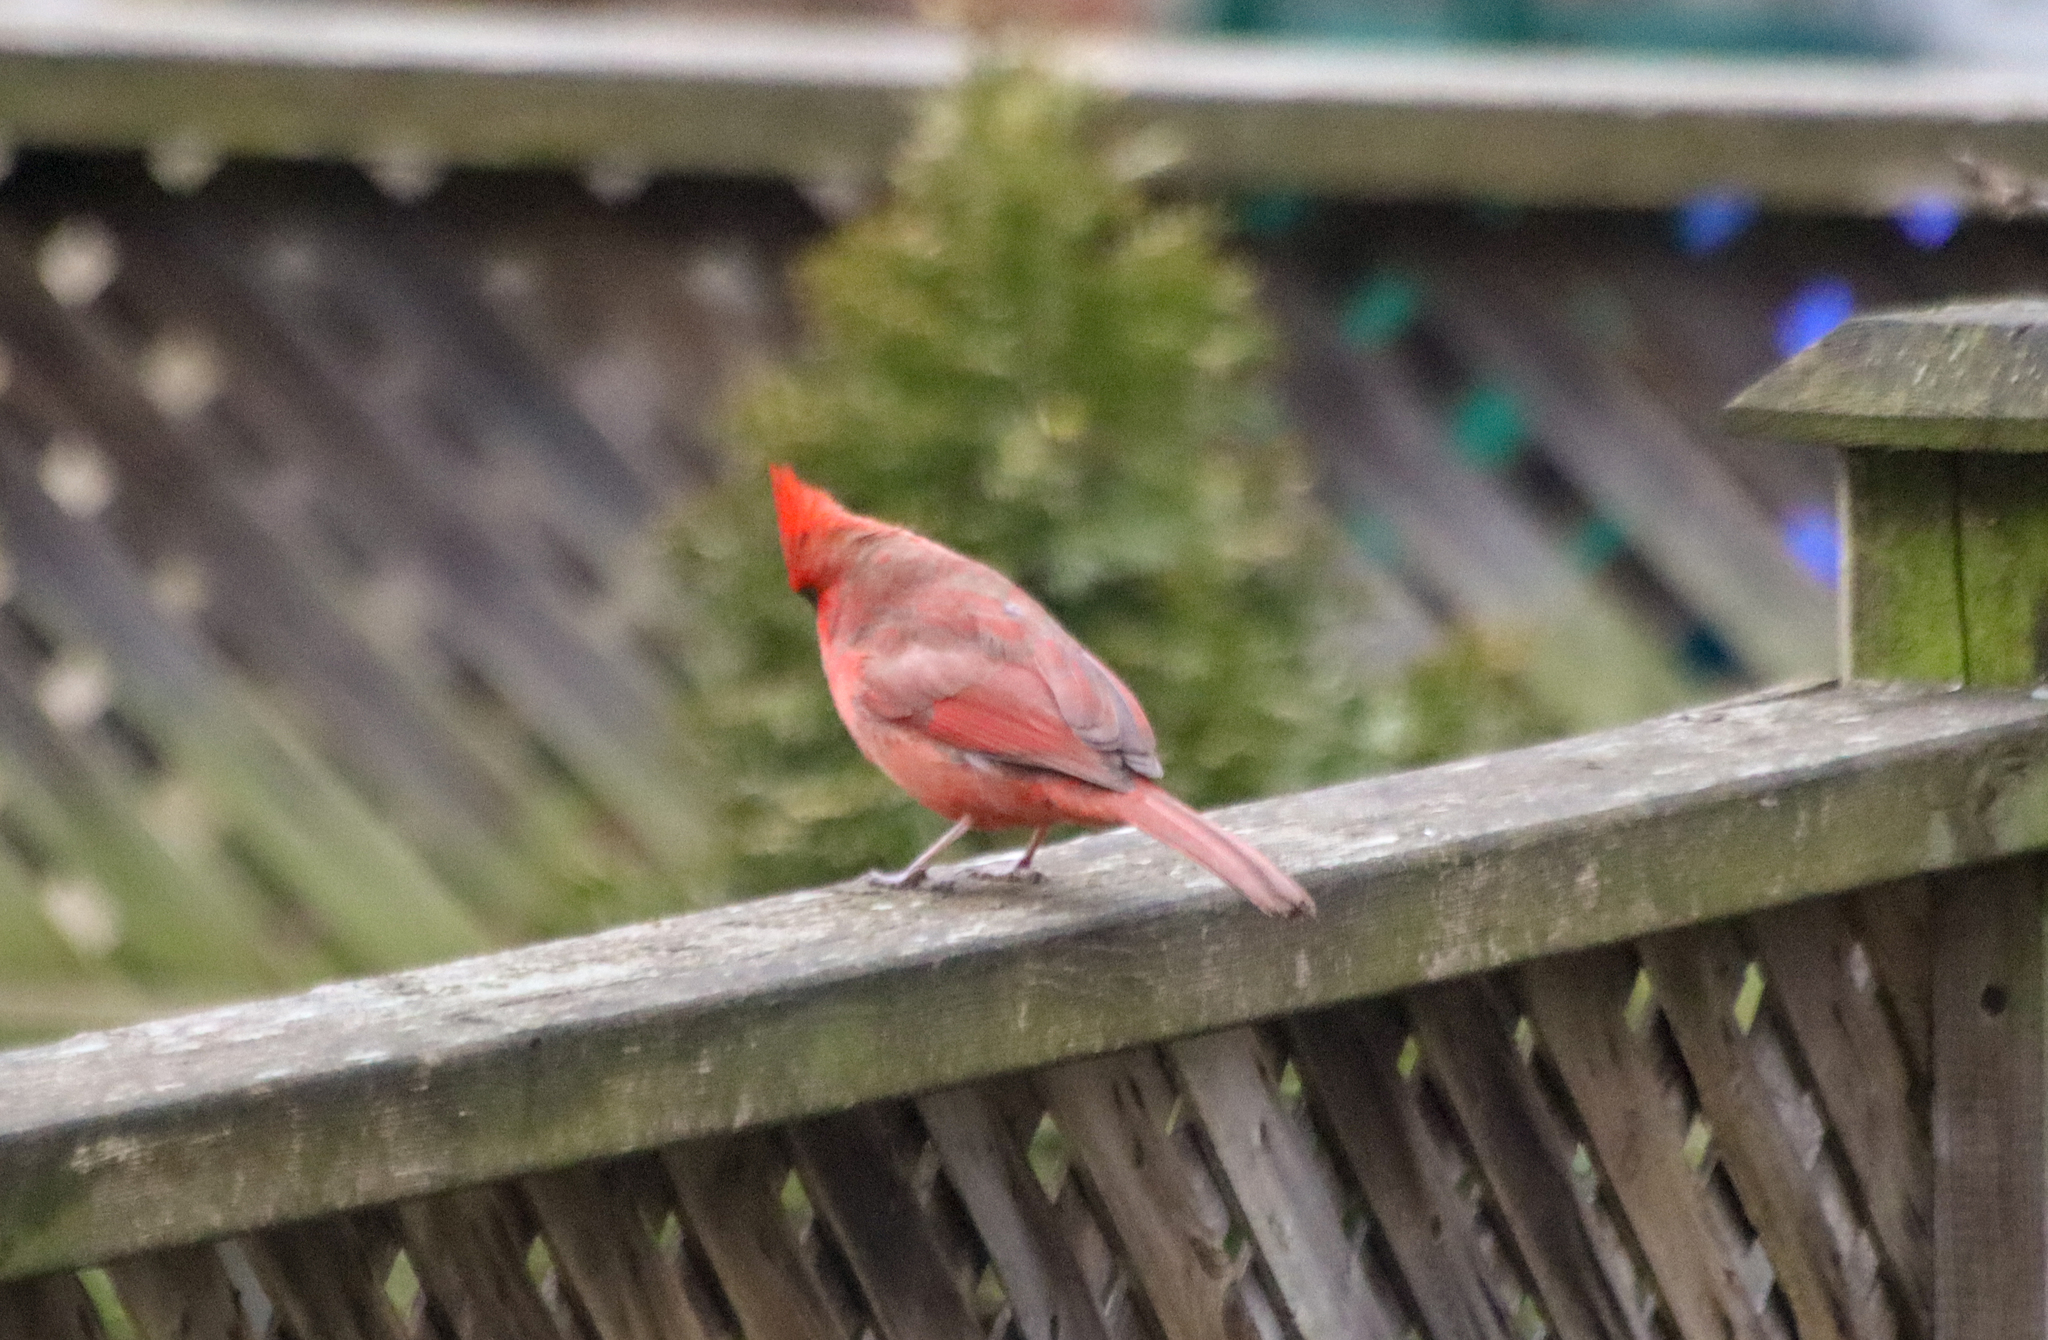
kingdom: Animalia
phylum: Chordata
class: Aves
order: Passeriformes
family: Cardinalidae
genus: Cardinalis
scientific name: Cardinalis cardinalis
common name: Northern cardinal
